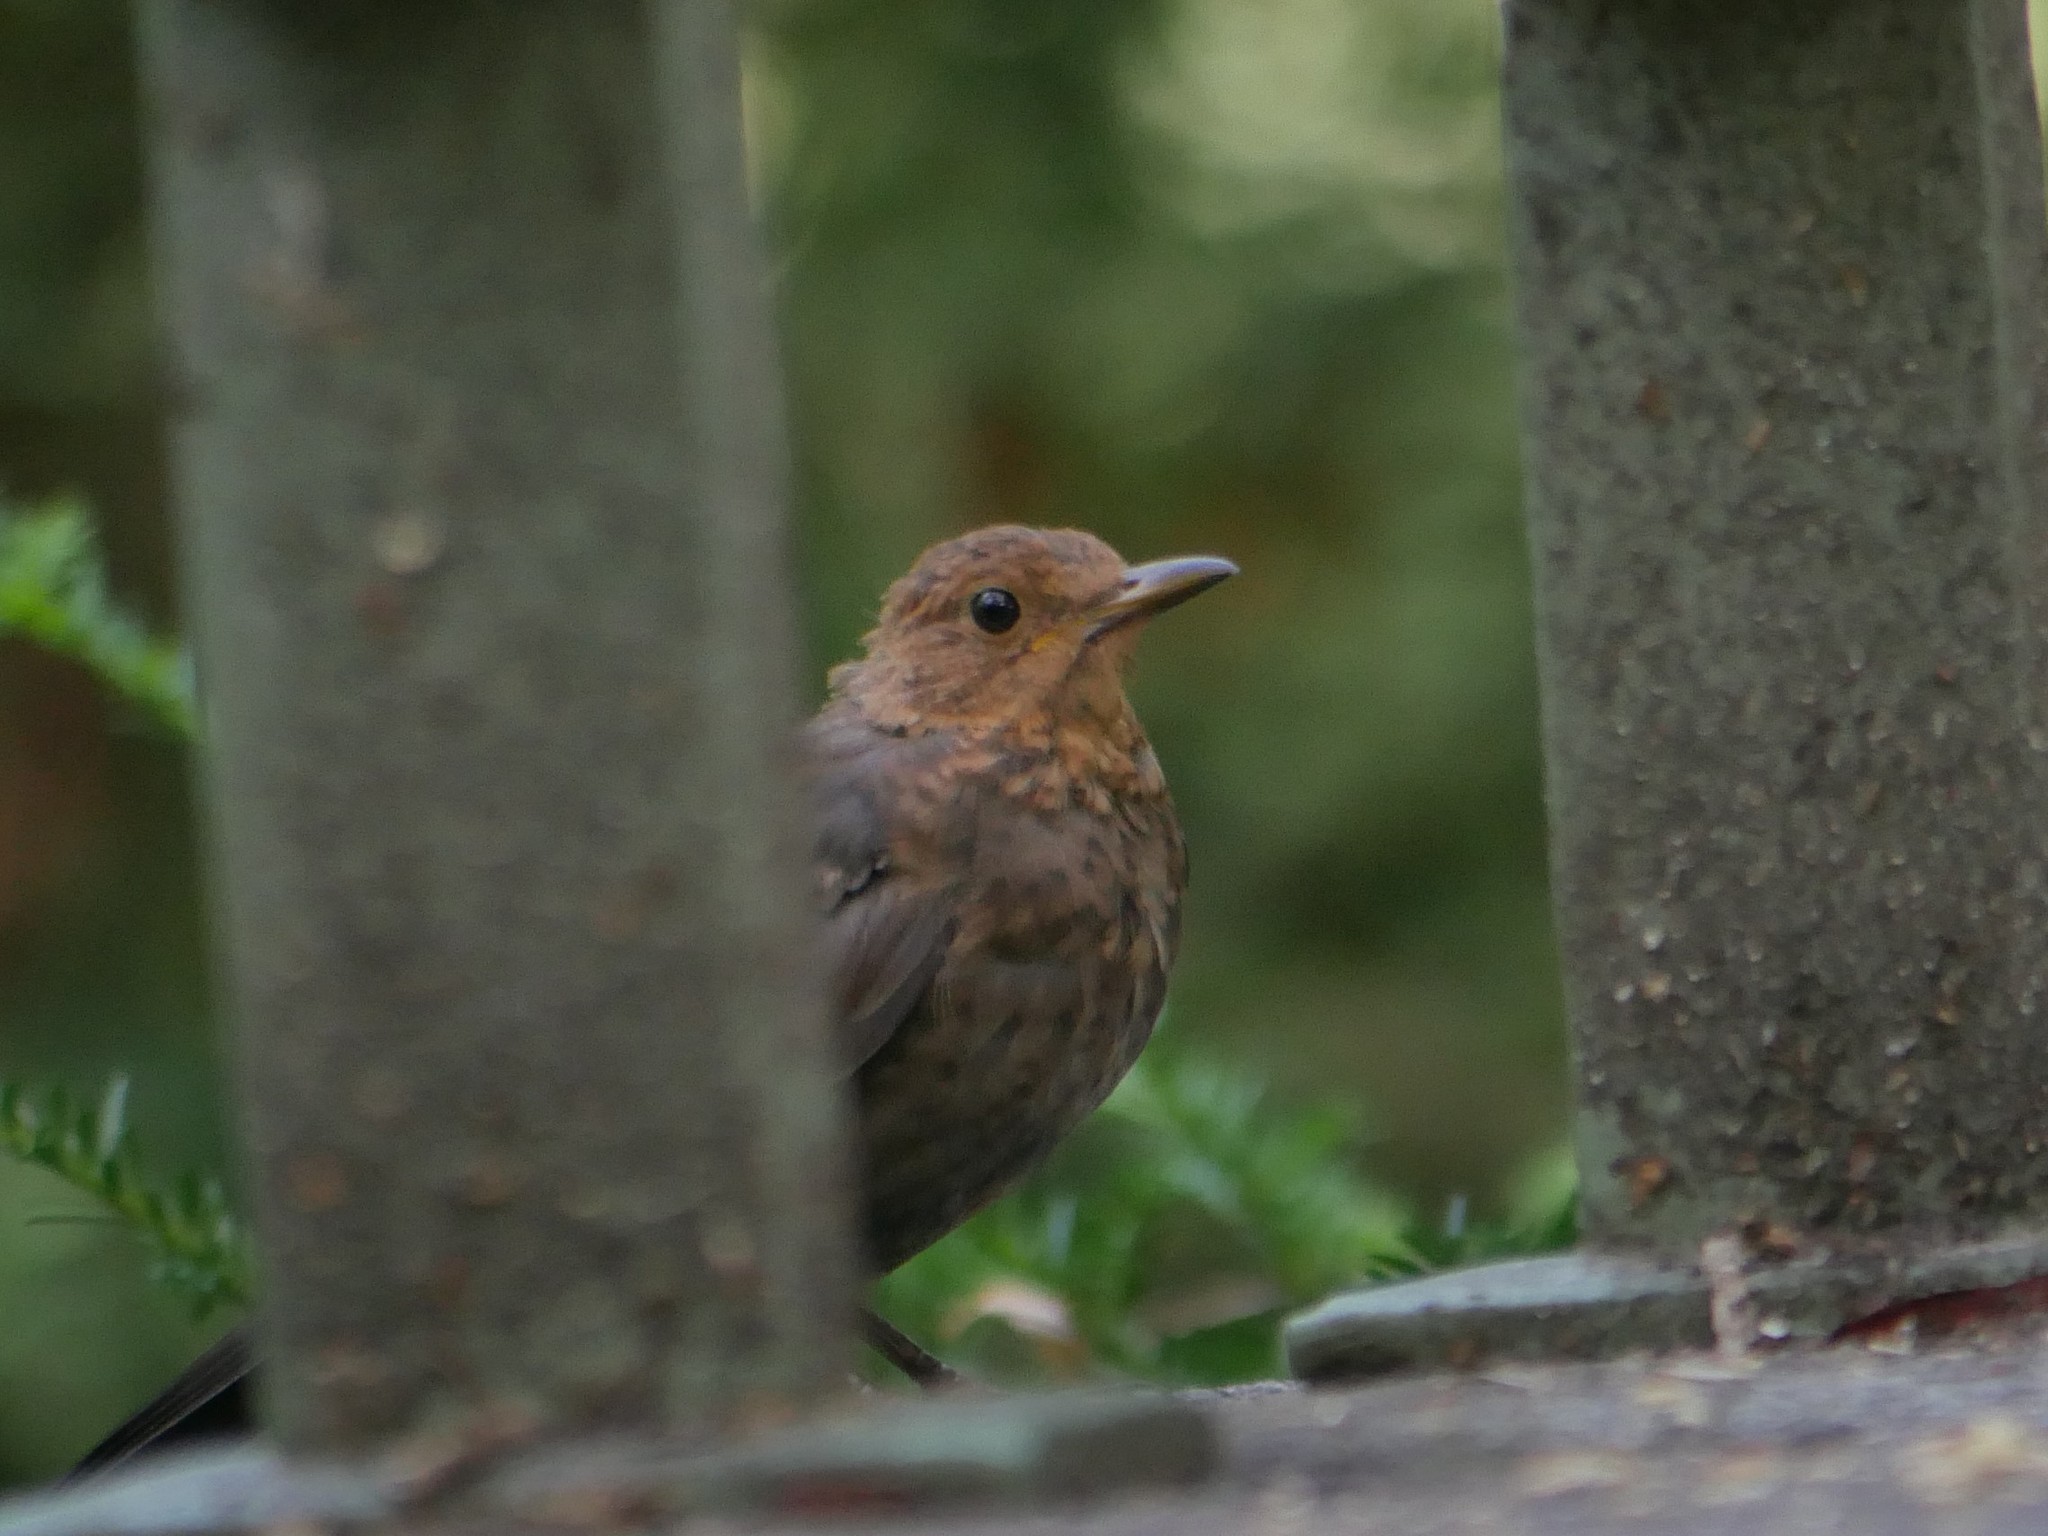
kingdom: Animalia
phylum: Chordata
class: Aves
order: Passeriformes
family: Turdidae
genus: Turdus
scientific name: Turdus merula
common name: Common blackbird
